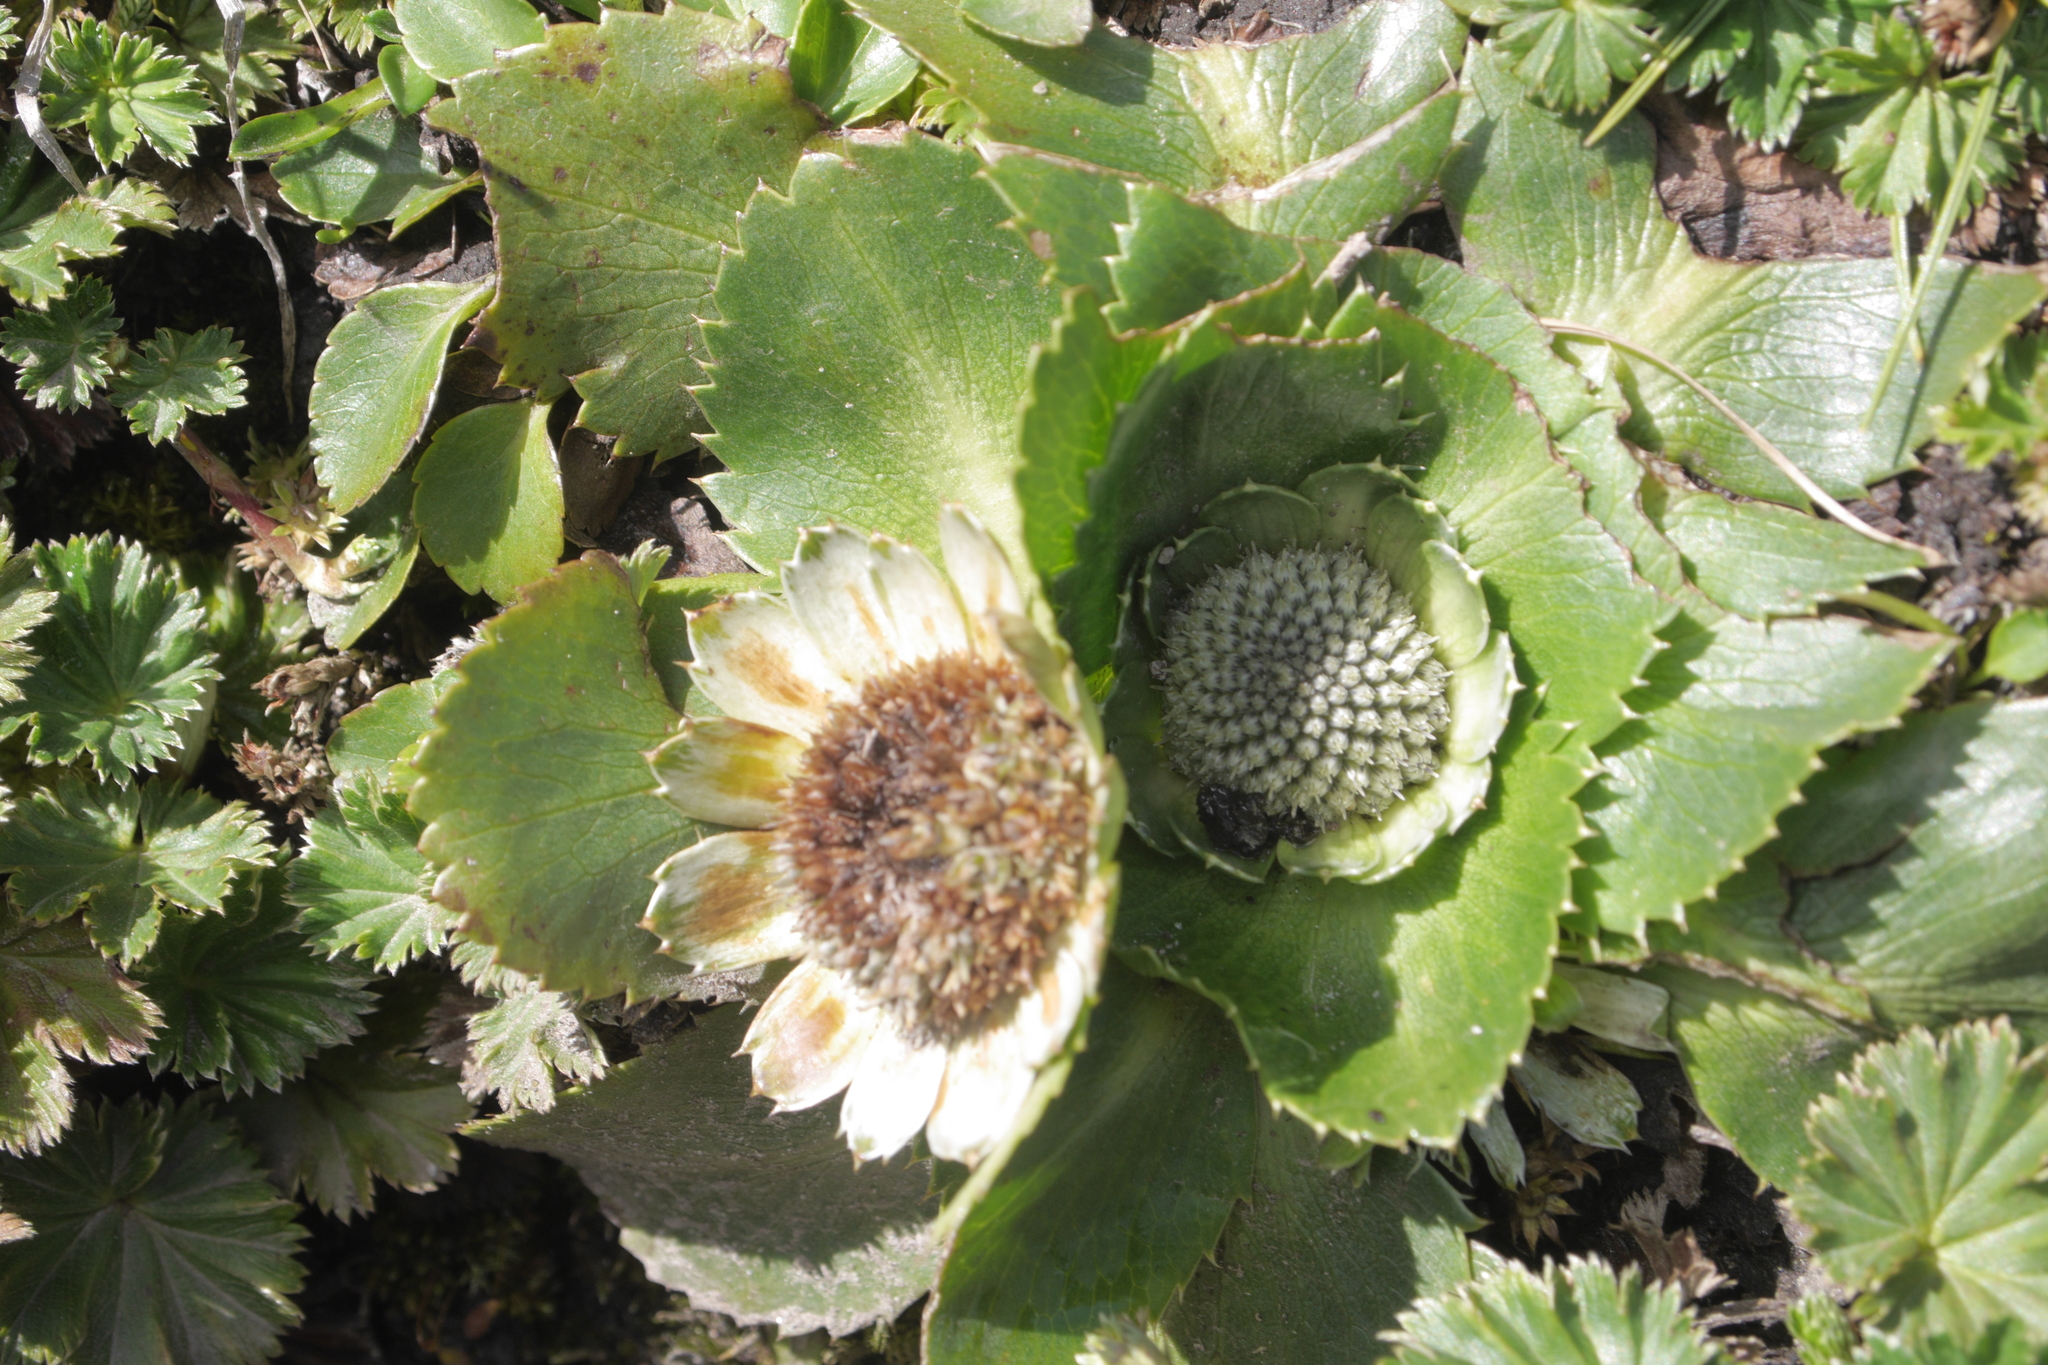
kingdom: Plantae
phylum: Tracheophyta
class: Magnoliopsida
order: Apiales
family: Apiaceae
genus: Eryngium
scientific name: Eryngium humile
